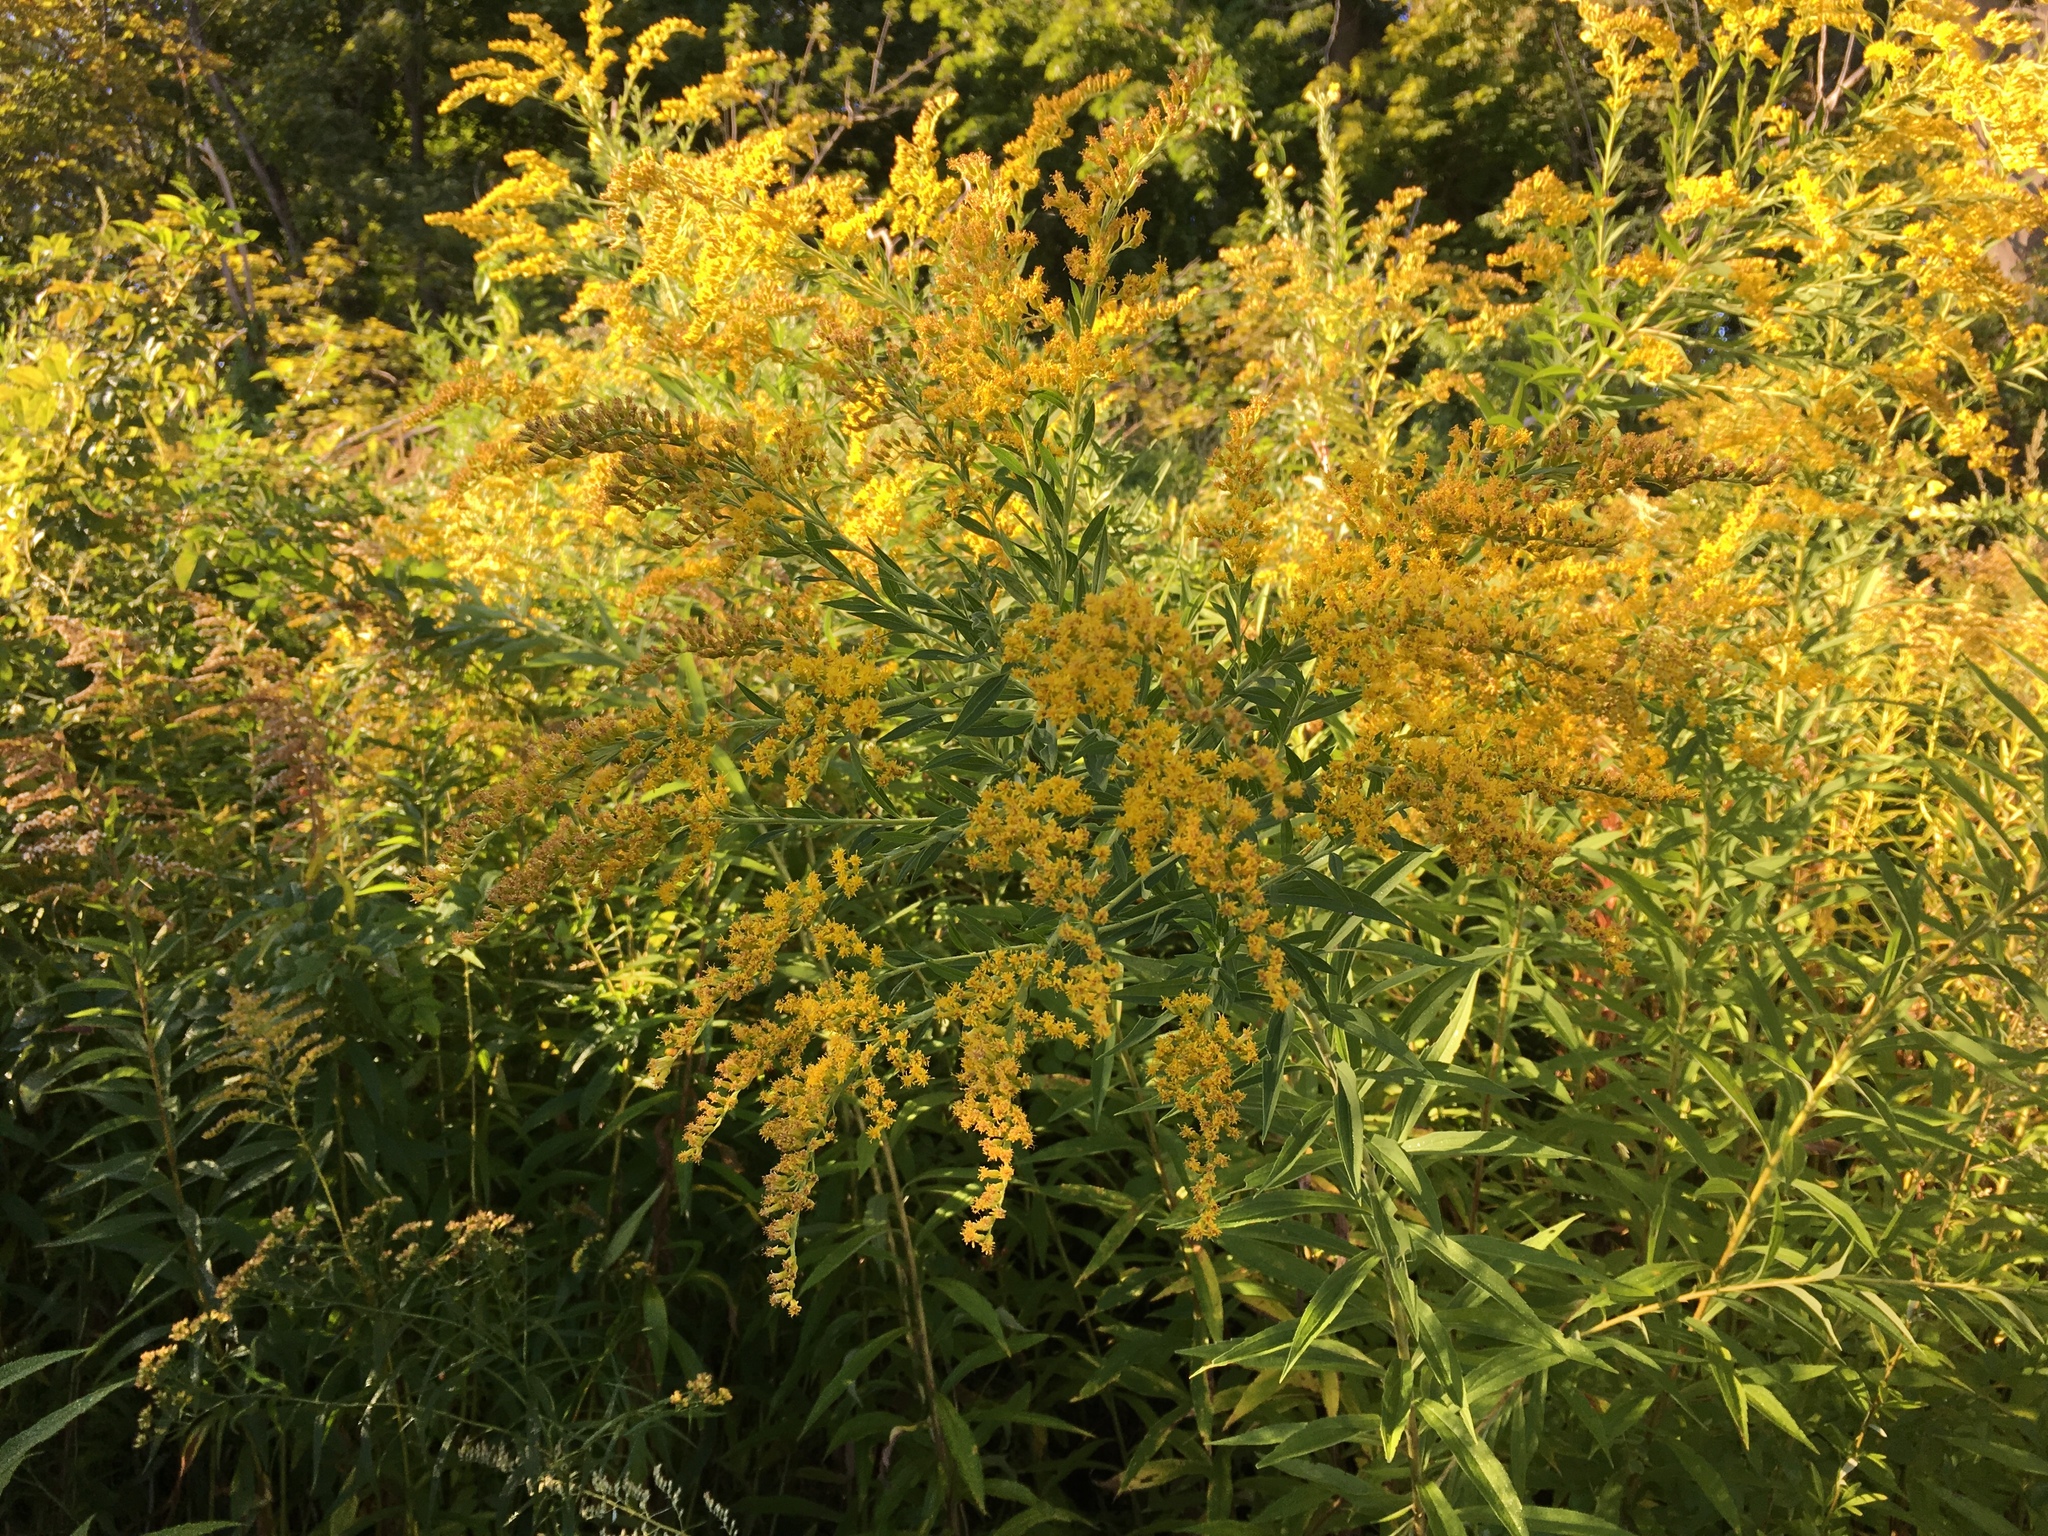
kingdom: Plantae
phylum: Tracheophyta
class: Magnoliopsida
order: Asterales
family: Asteraceae
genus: Solidago
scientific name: Solidago canadensis
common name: Canada goldenrod
